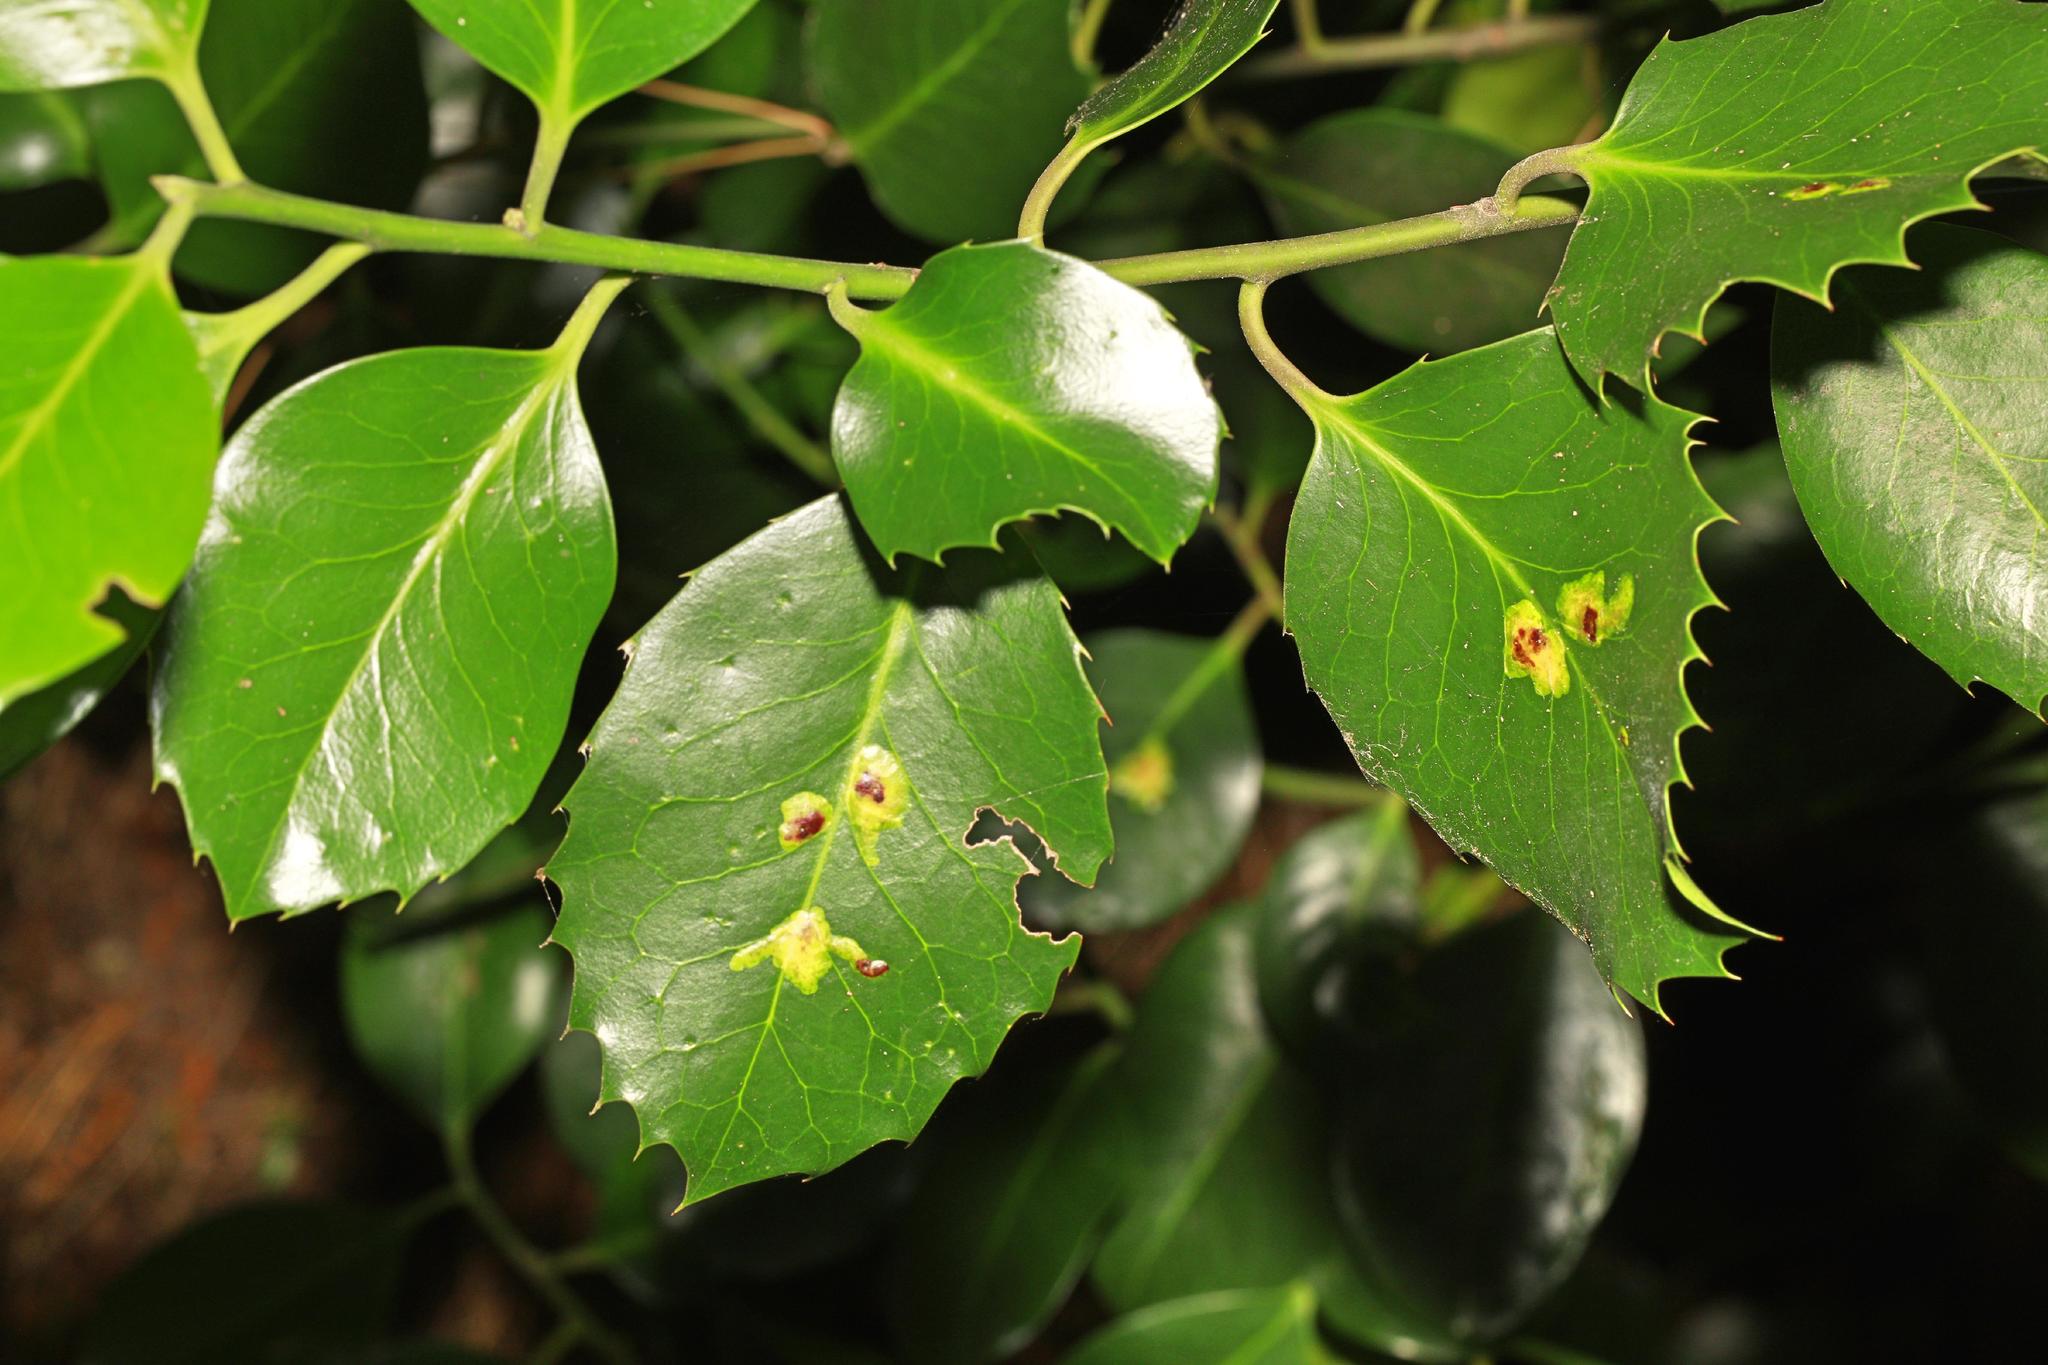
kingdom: Plantae
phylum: Tracheophyta
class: Magnoliopsida
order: Aquifoliales
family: Aquifoliaceae
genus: Ilex
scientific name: Ilex aquifolium
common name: English holly
